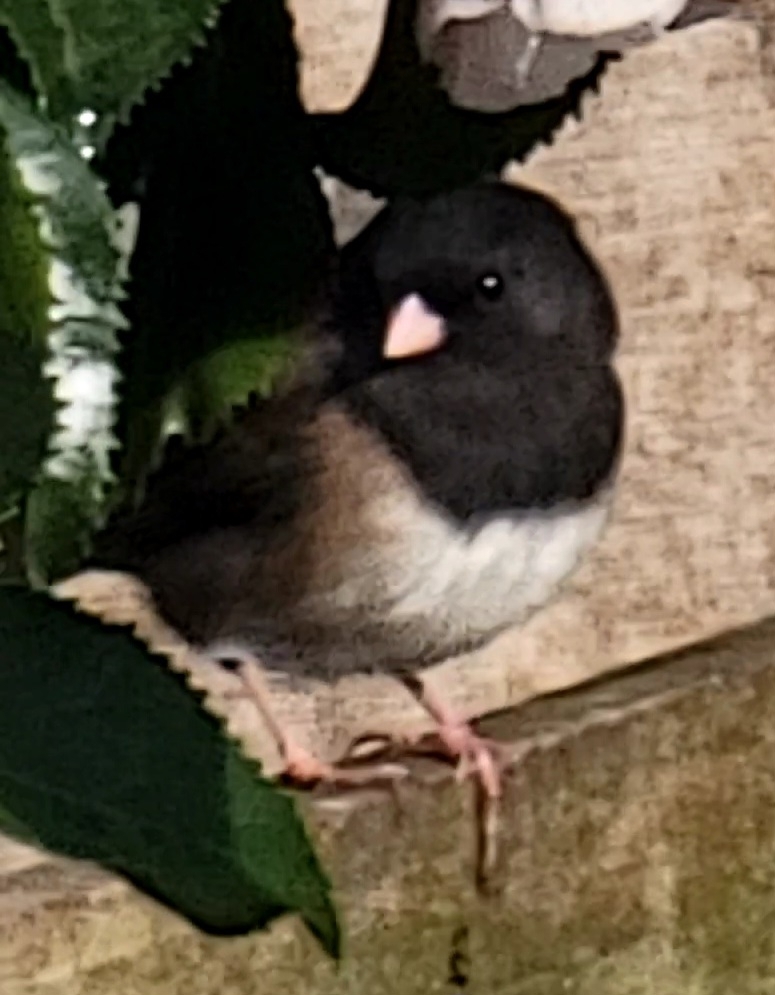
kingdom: Animalia
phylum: Chordata
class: Aves
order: Passeriformes
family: Passerellidae
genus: Junco
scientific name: Junco hyemalis
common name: Dark-eyed junco
